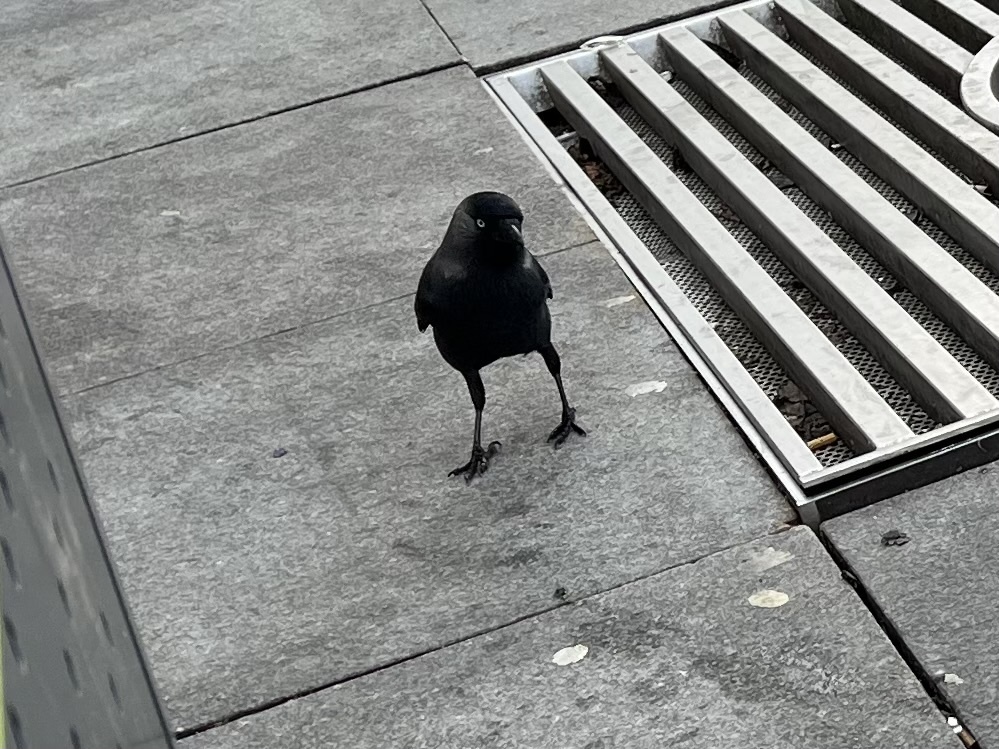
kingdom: Animalia
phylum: Chordata
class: Aves
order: Passeriformes
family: Corvidae
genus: Coloeus
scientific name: Coloeus monedula
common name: Western jackdaw
